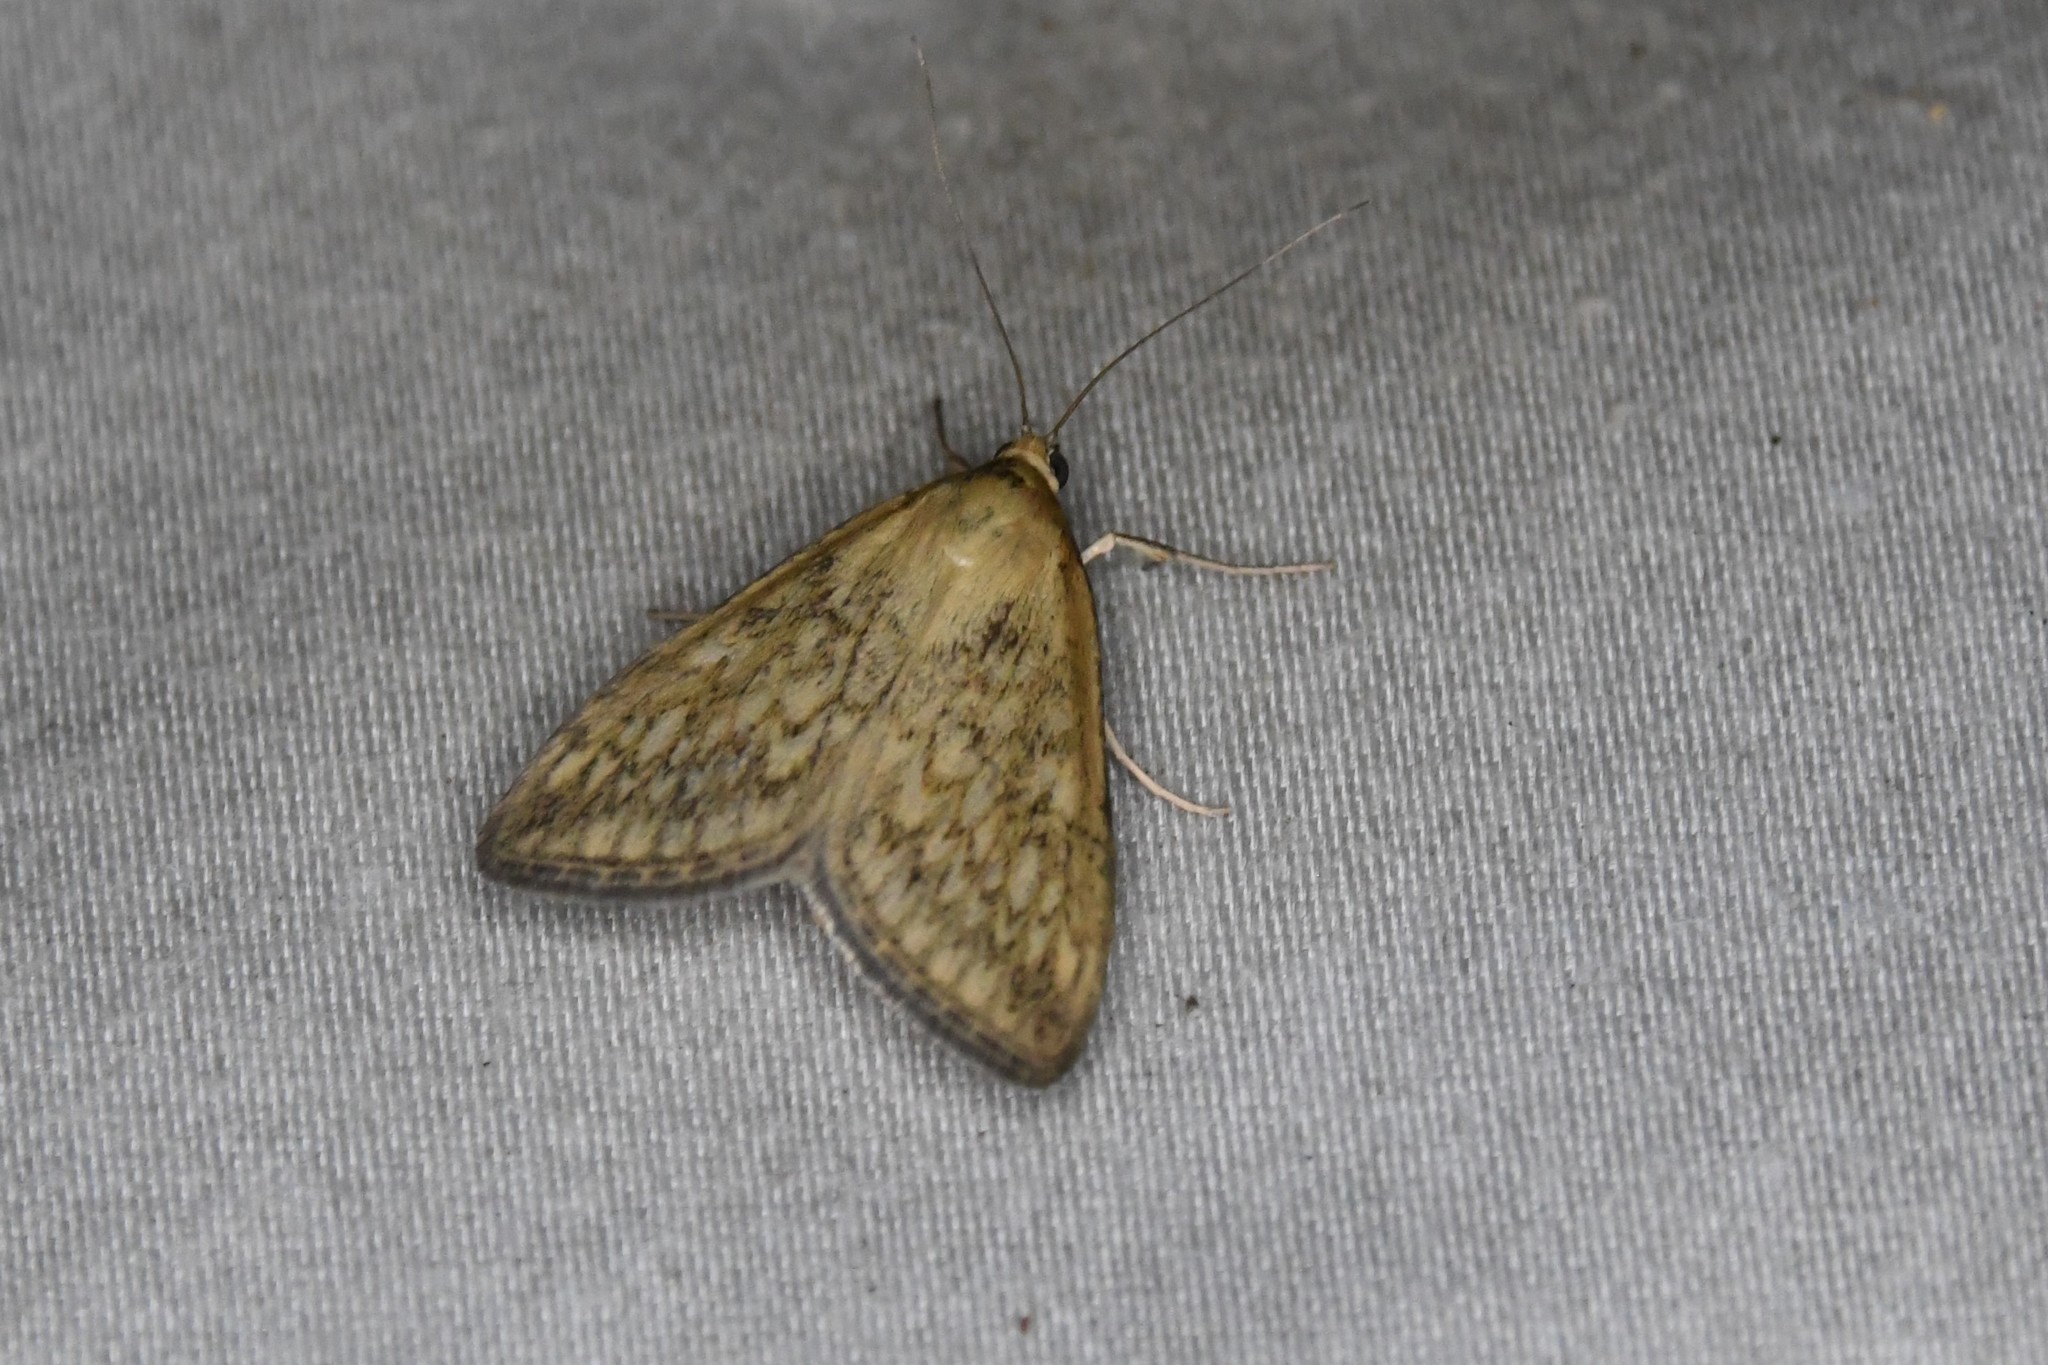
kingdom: Animalia
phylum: Arthropoda
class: Insecta
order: Lepidoptera
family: Crambidae
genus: Sitochroa
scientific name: Sitochroa chortalis
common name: Dimorphic sitochroa moth
